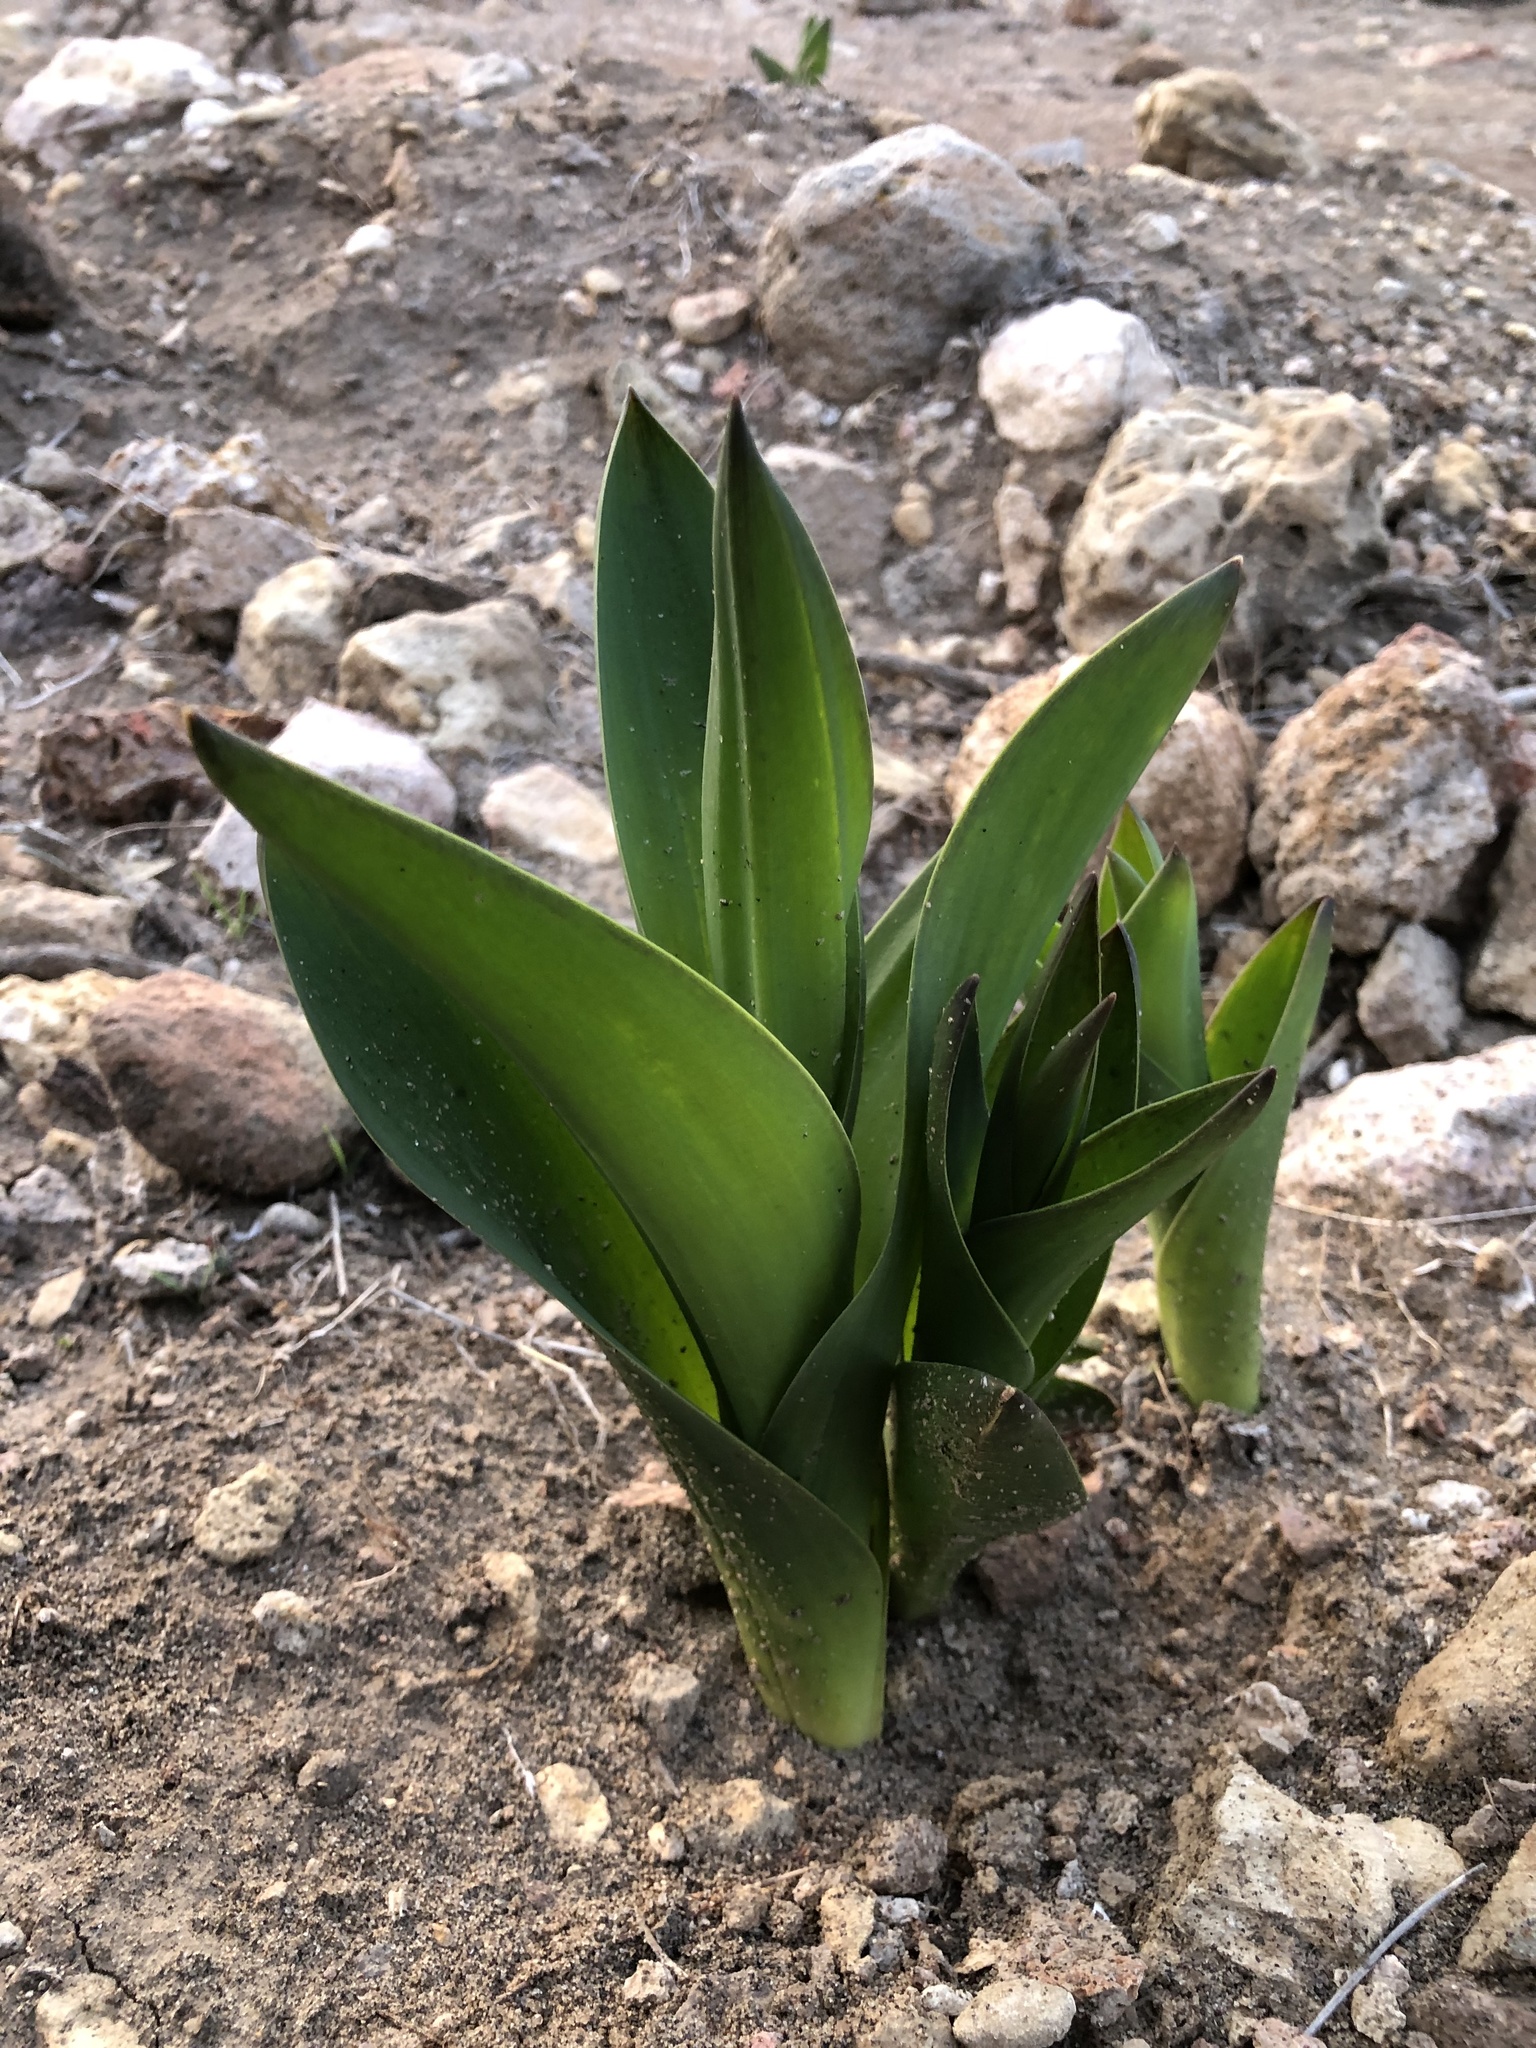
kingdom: Plantae
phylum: Tracheophyta
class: Liliopsida
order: Asparagales
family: Asparagaceae
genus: Drimia
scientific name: Drimia numidica
